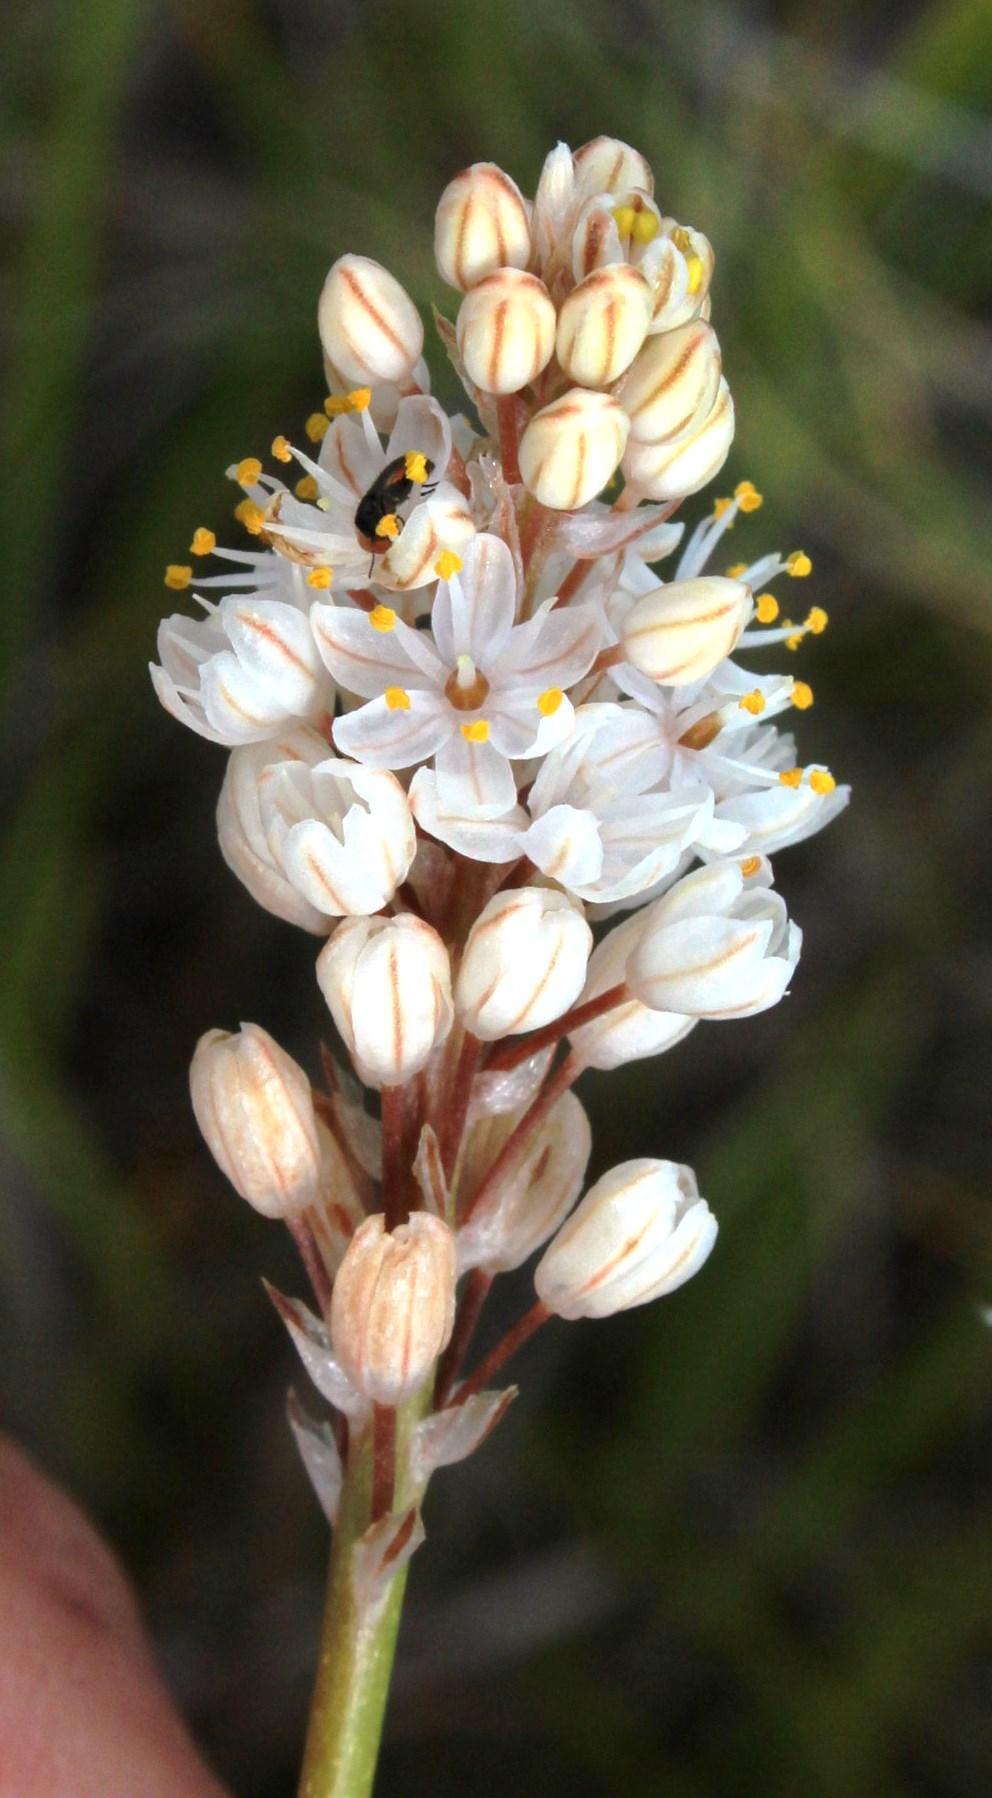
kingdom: Plantae
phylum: Tracheophyta
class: Liliopsida
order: Asparagales
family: Asphodelaceae
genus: Bulbinella
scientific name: Bulbinella cauda-felis
